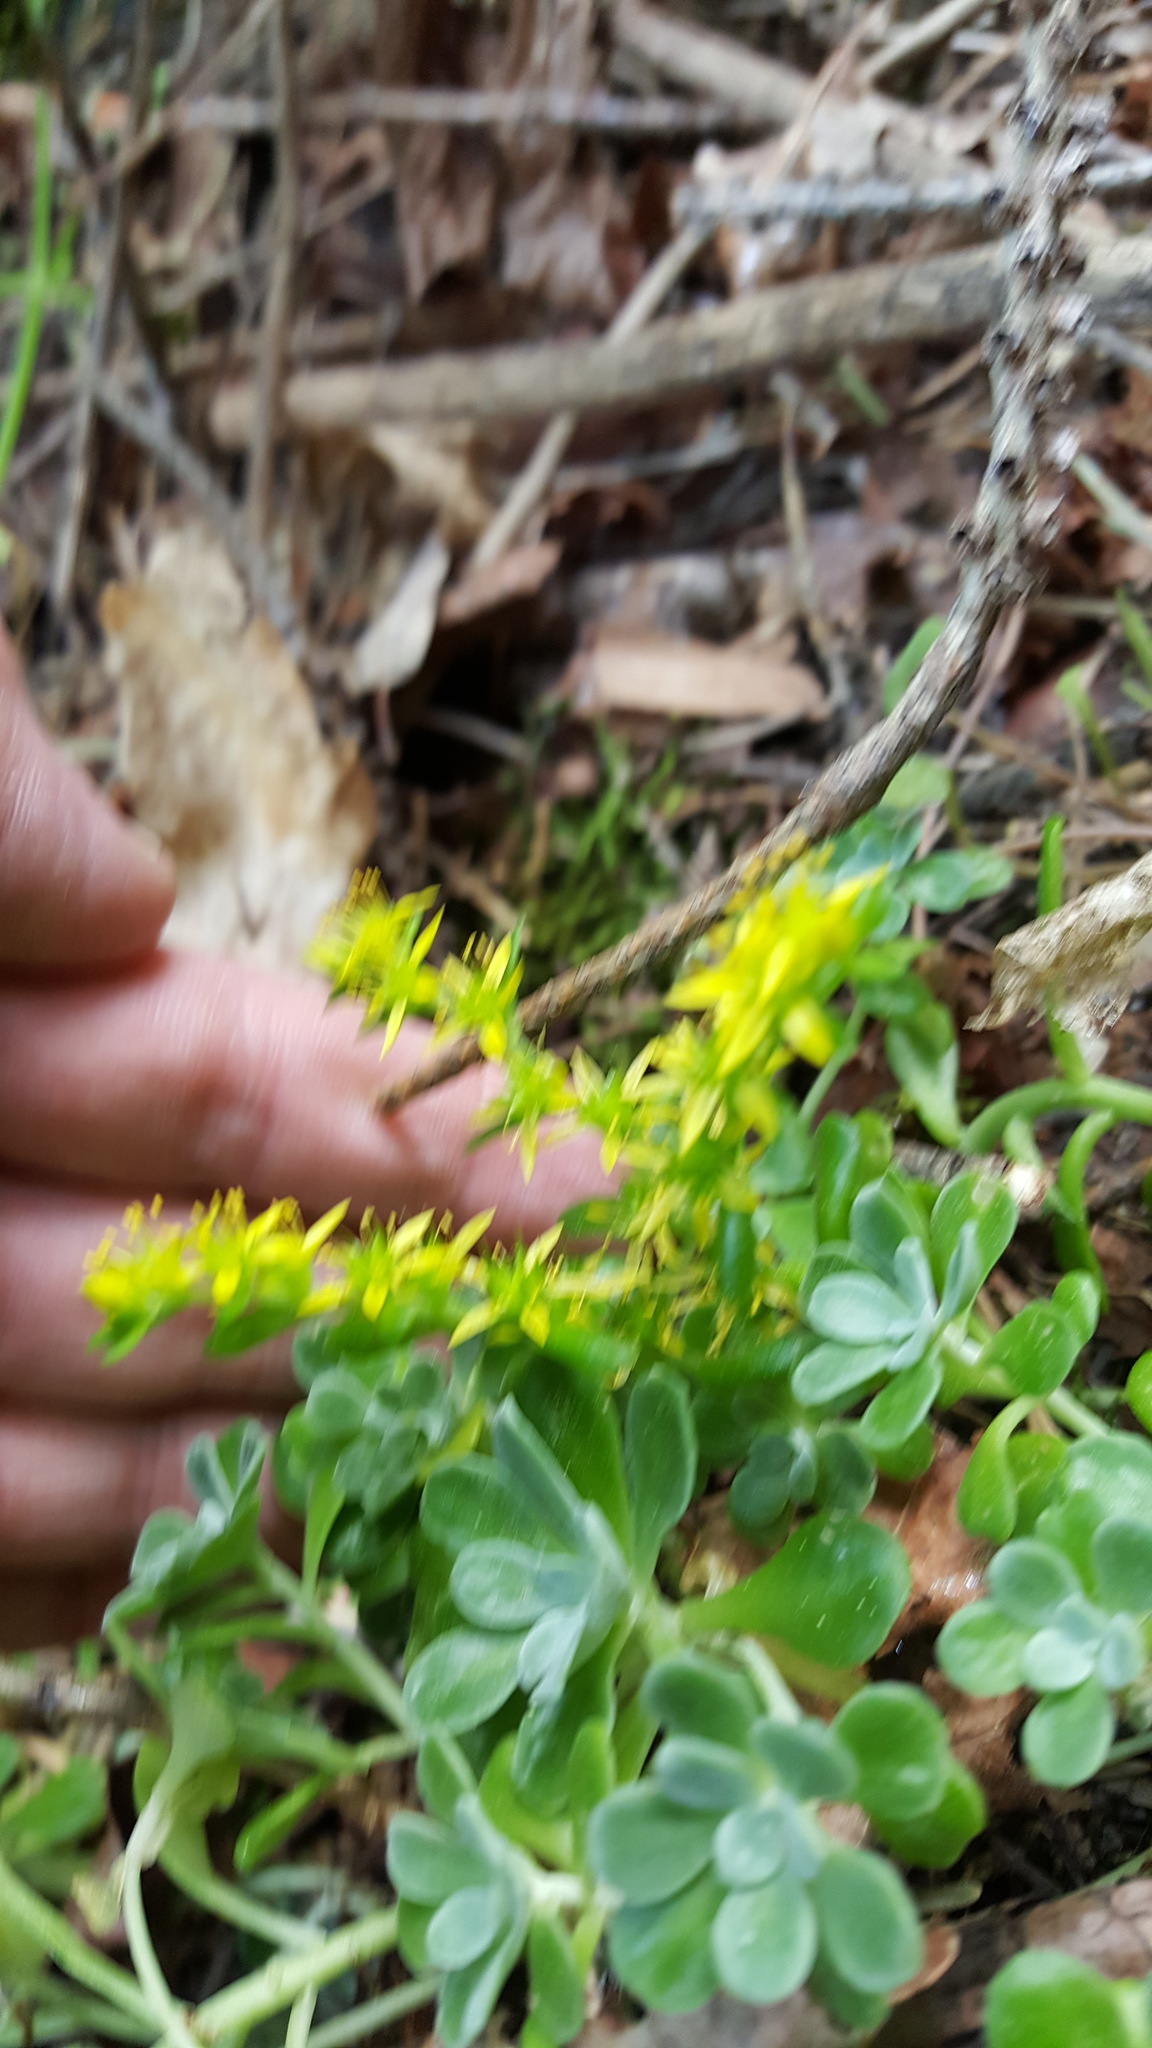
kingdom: Plantae
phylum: Tracheophyta
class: Magnoliopsida
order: Saxifragales
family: Crassulaceae
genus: Sedum
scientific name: Sedum spathulifolium
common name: Colorado stonecrop
